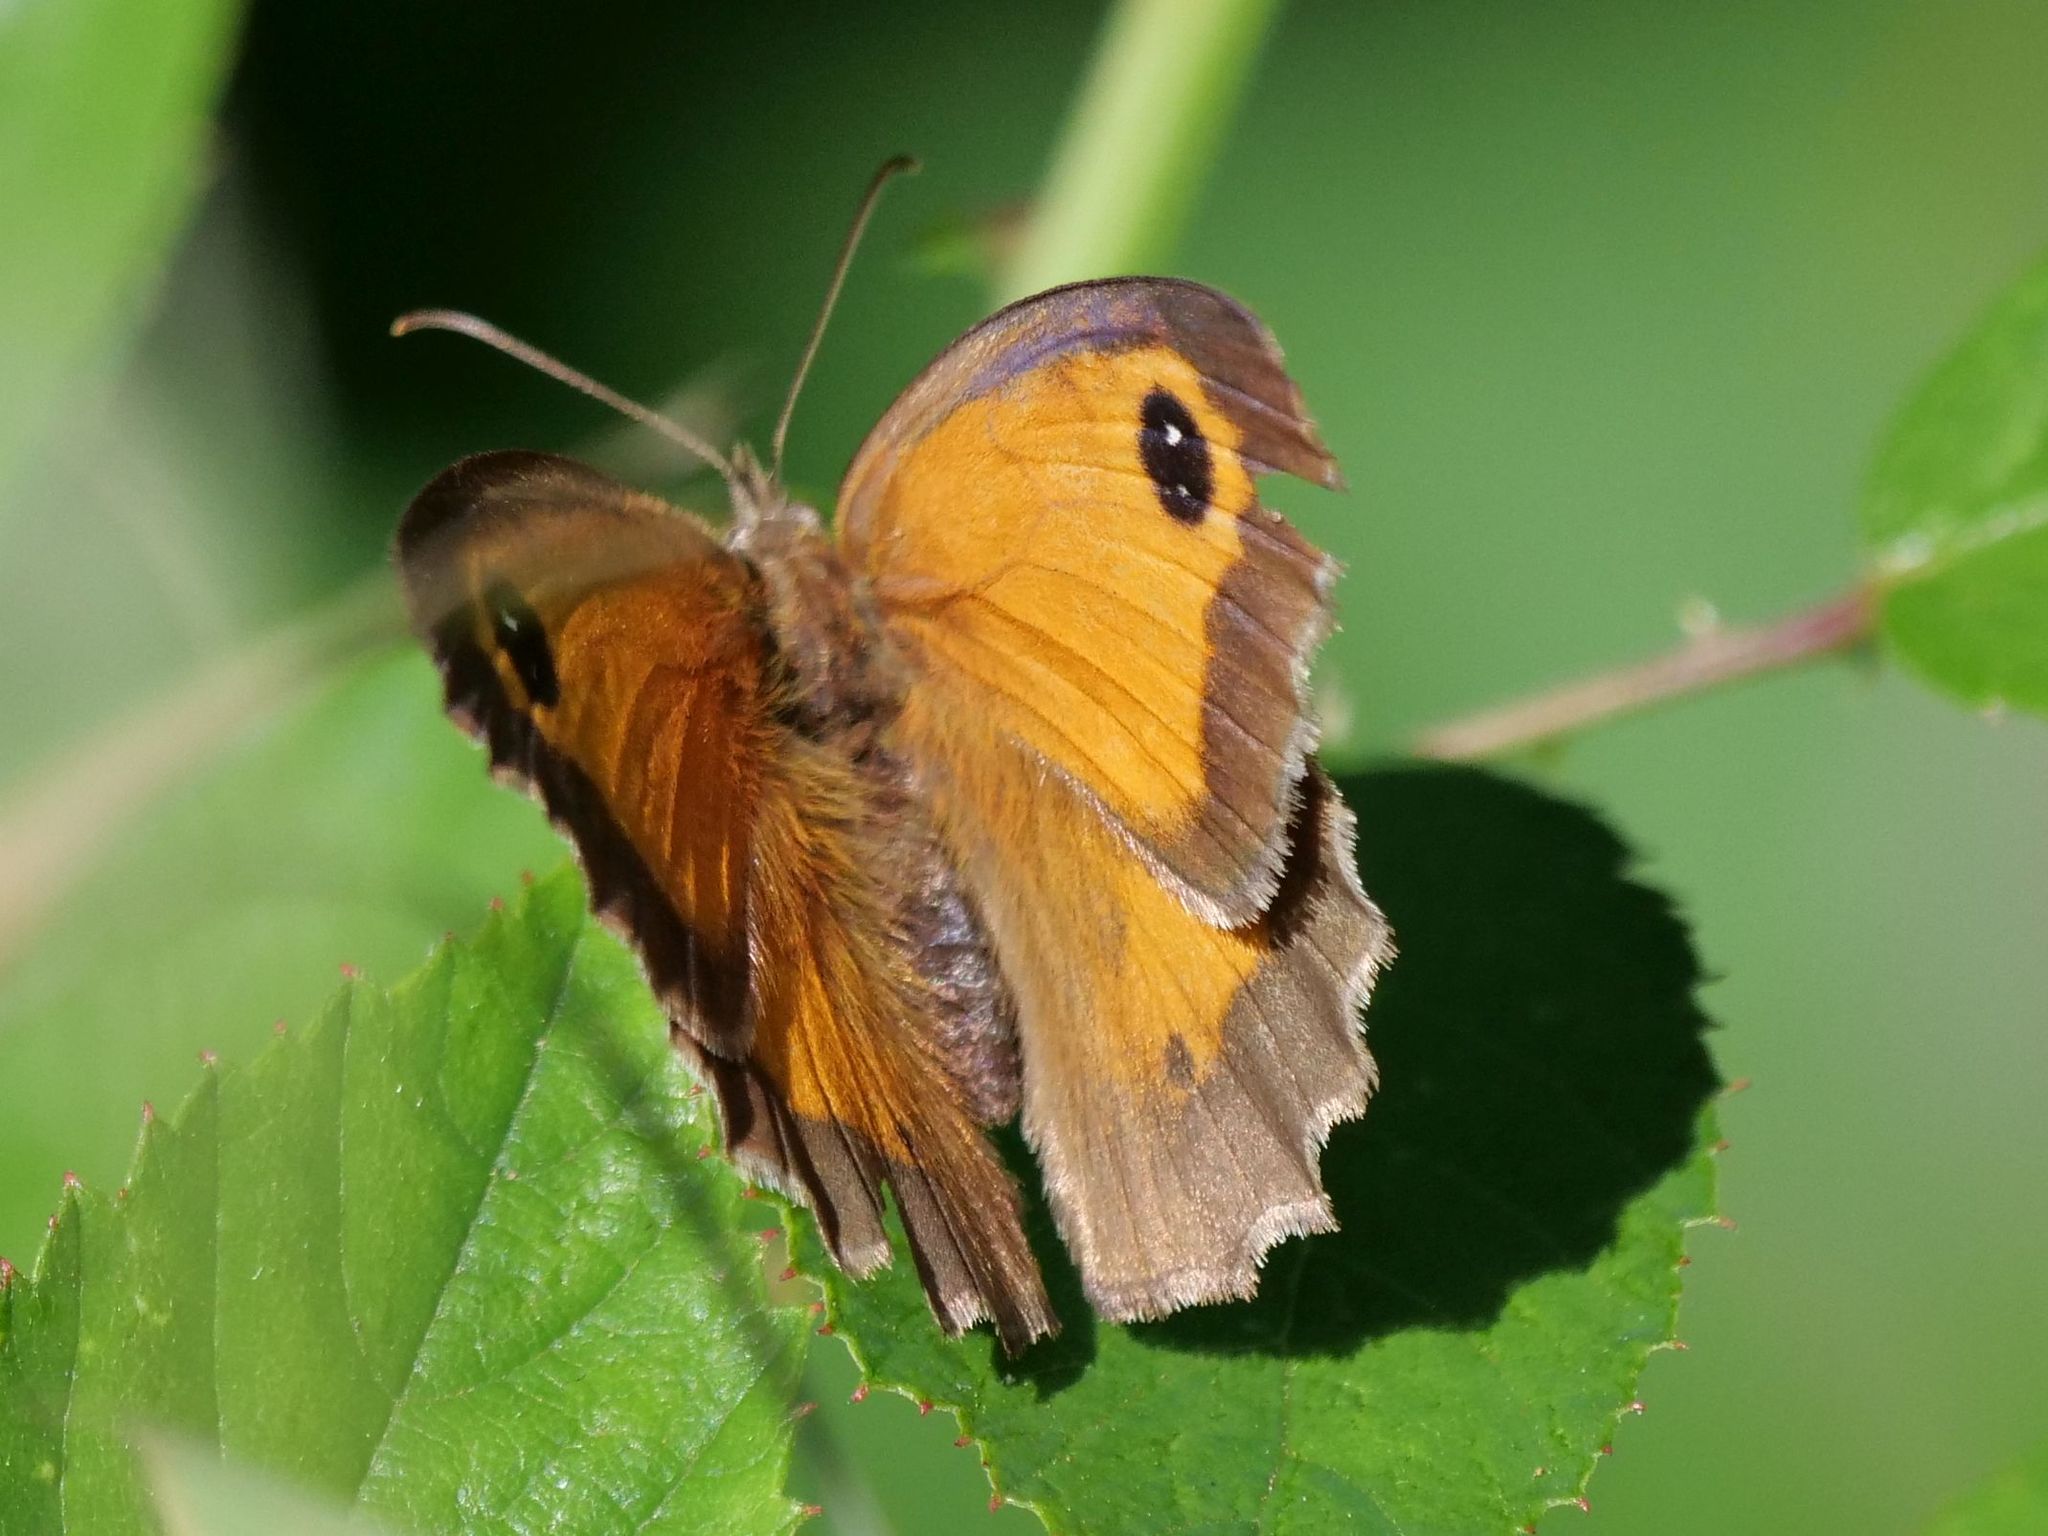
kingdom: Animalia
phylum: Arthropoda
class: Insecta
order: Lepidoptera
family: Nymphalidae
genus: Pyronia
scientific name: Pyronia tithonus
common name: Gatekeeper
